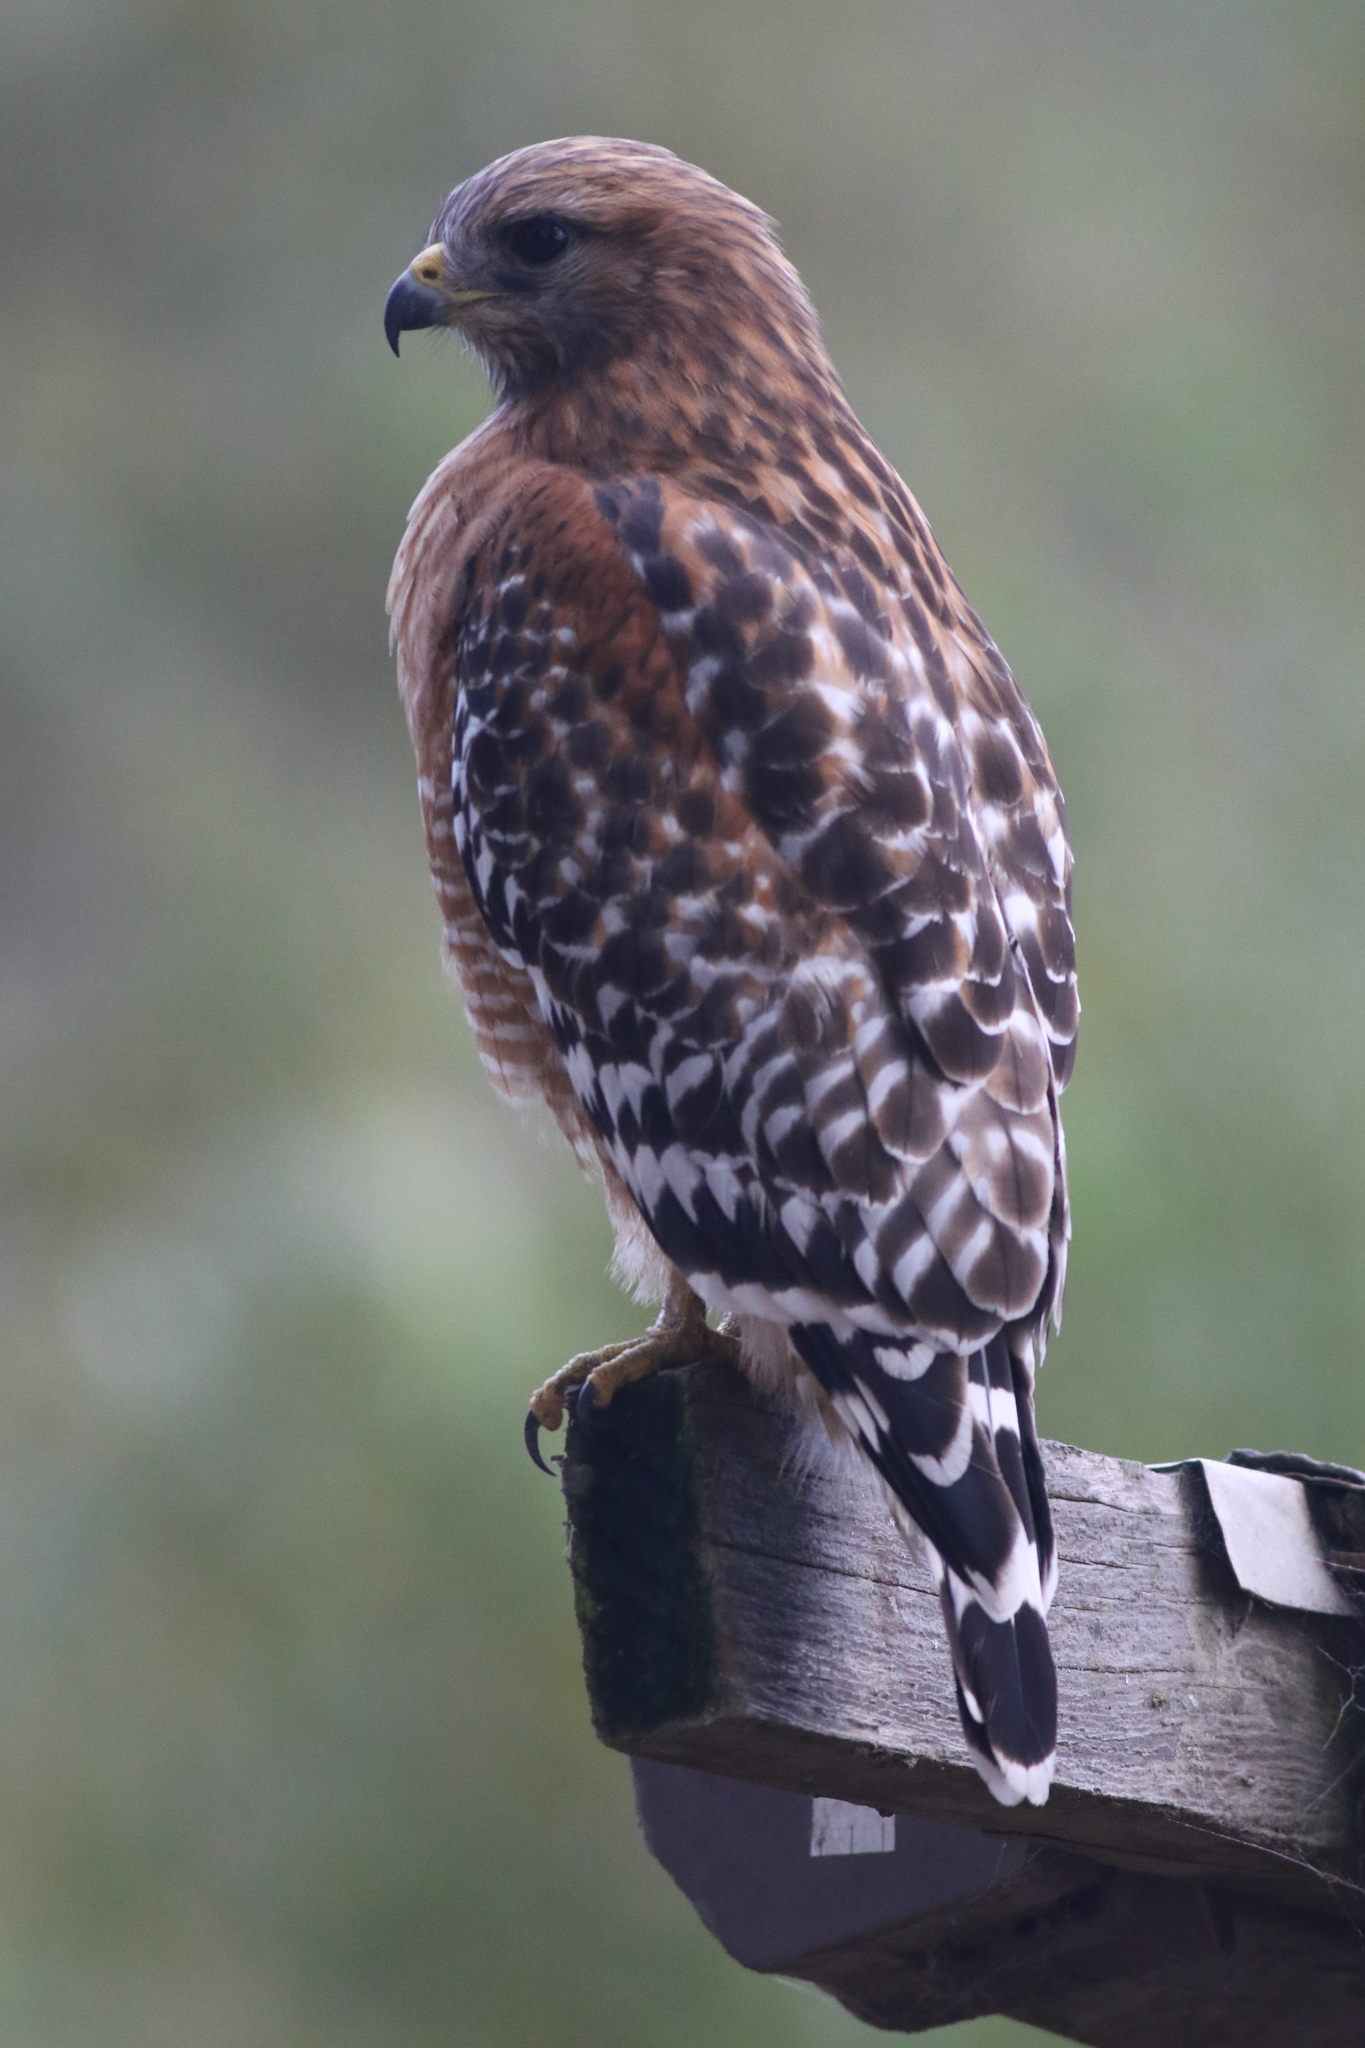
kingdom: Animalia
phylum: Chordata
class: Aves
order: Accipitriformes
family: Accipitridae
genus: Buteo
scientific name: Buteo lineatus
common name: Red-shouldered hawk
